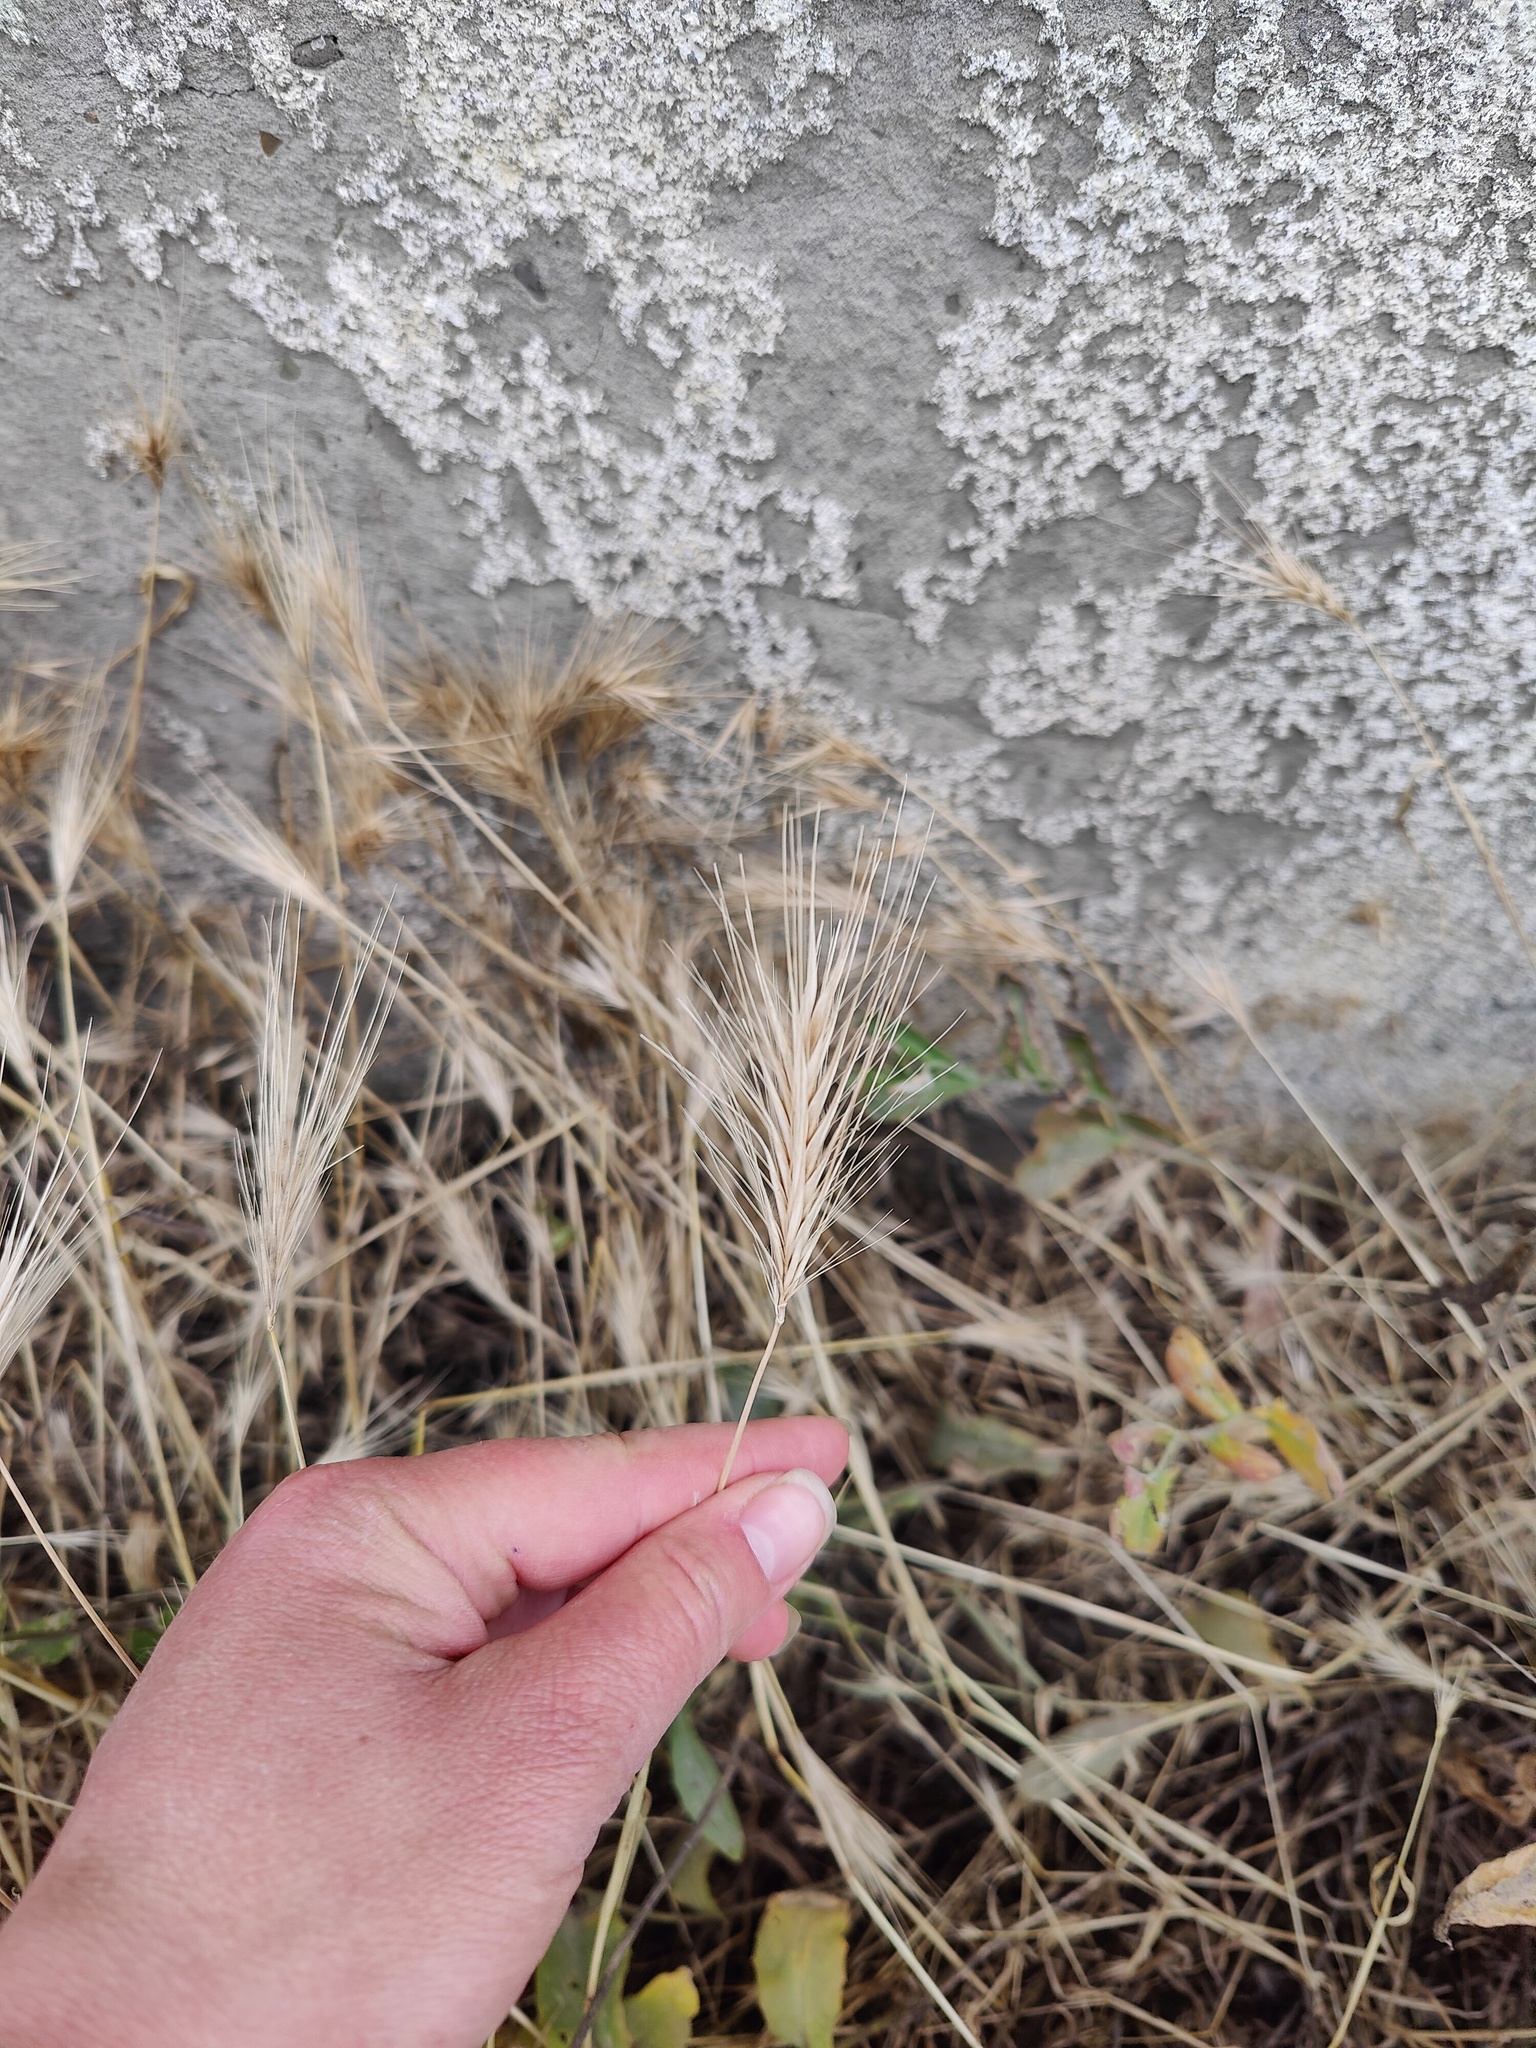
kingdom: Plantae
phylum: Tracheophyta
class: Liliopsida
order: Poales
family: Poaceae
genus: Hordeum
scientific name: Hordeum murinum
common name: Wall barley
